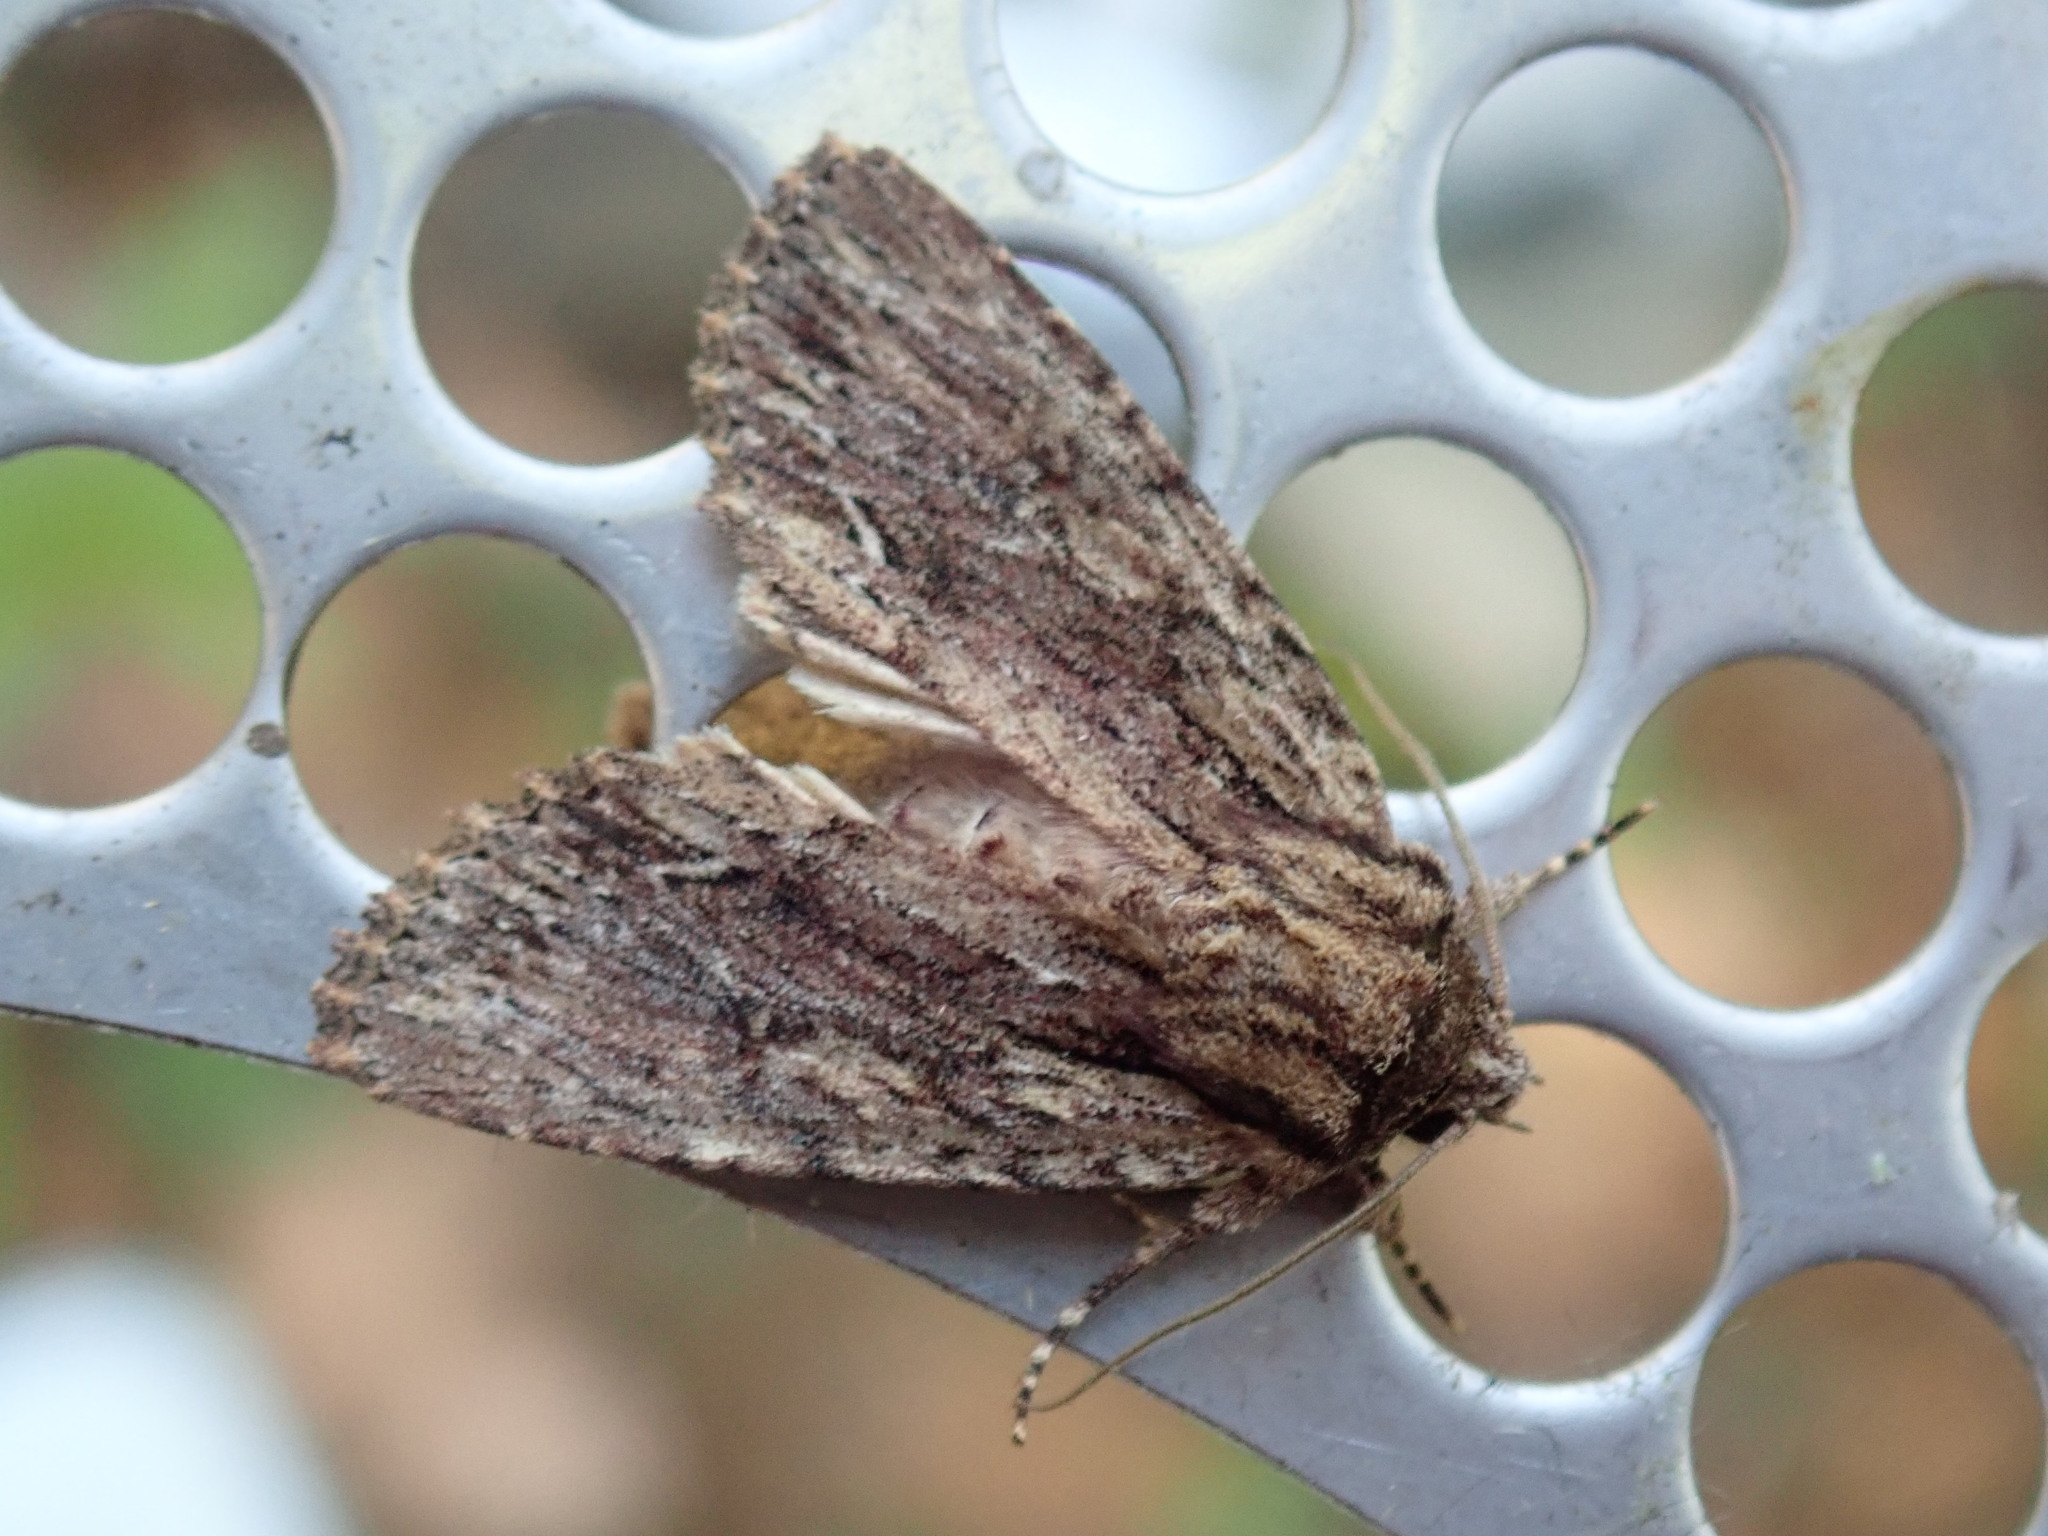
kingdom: Animalia
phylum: Arthropoda
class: Insecta
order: Lepidoptera
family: Noctuidae
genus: Achatia
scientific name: Achatia confusa
